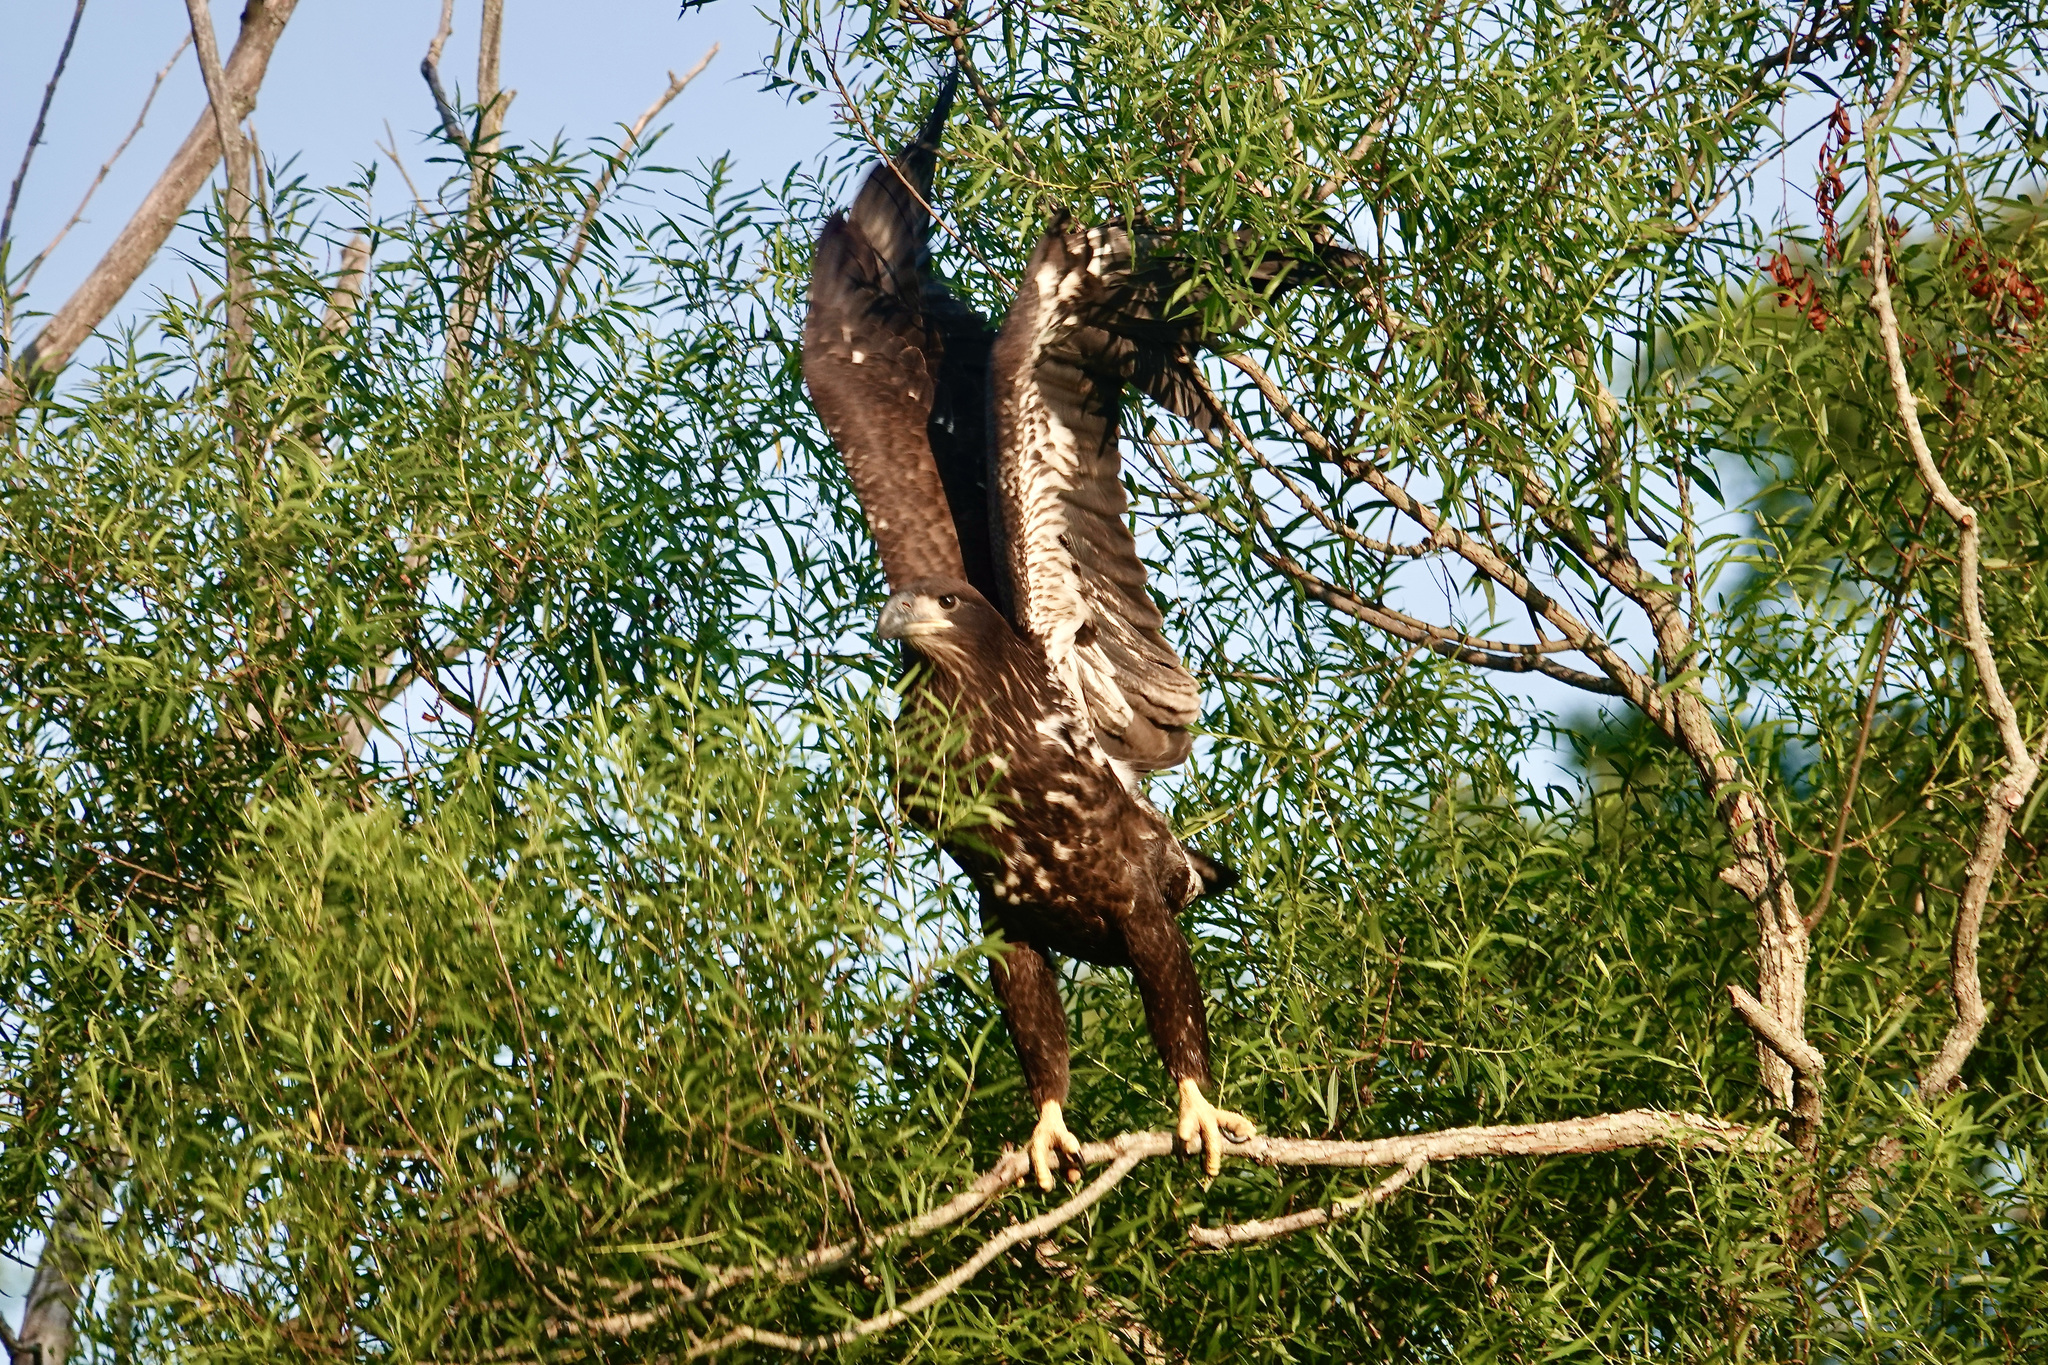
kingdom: Animalia
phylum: Chordata
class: Aves
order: Accipitriformes
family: Accipitridae
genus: Haliaeetus
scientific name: Haliaeetus leucocephalus
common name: Bald eagle
